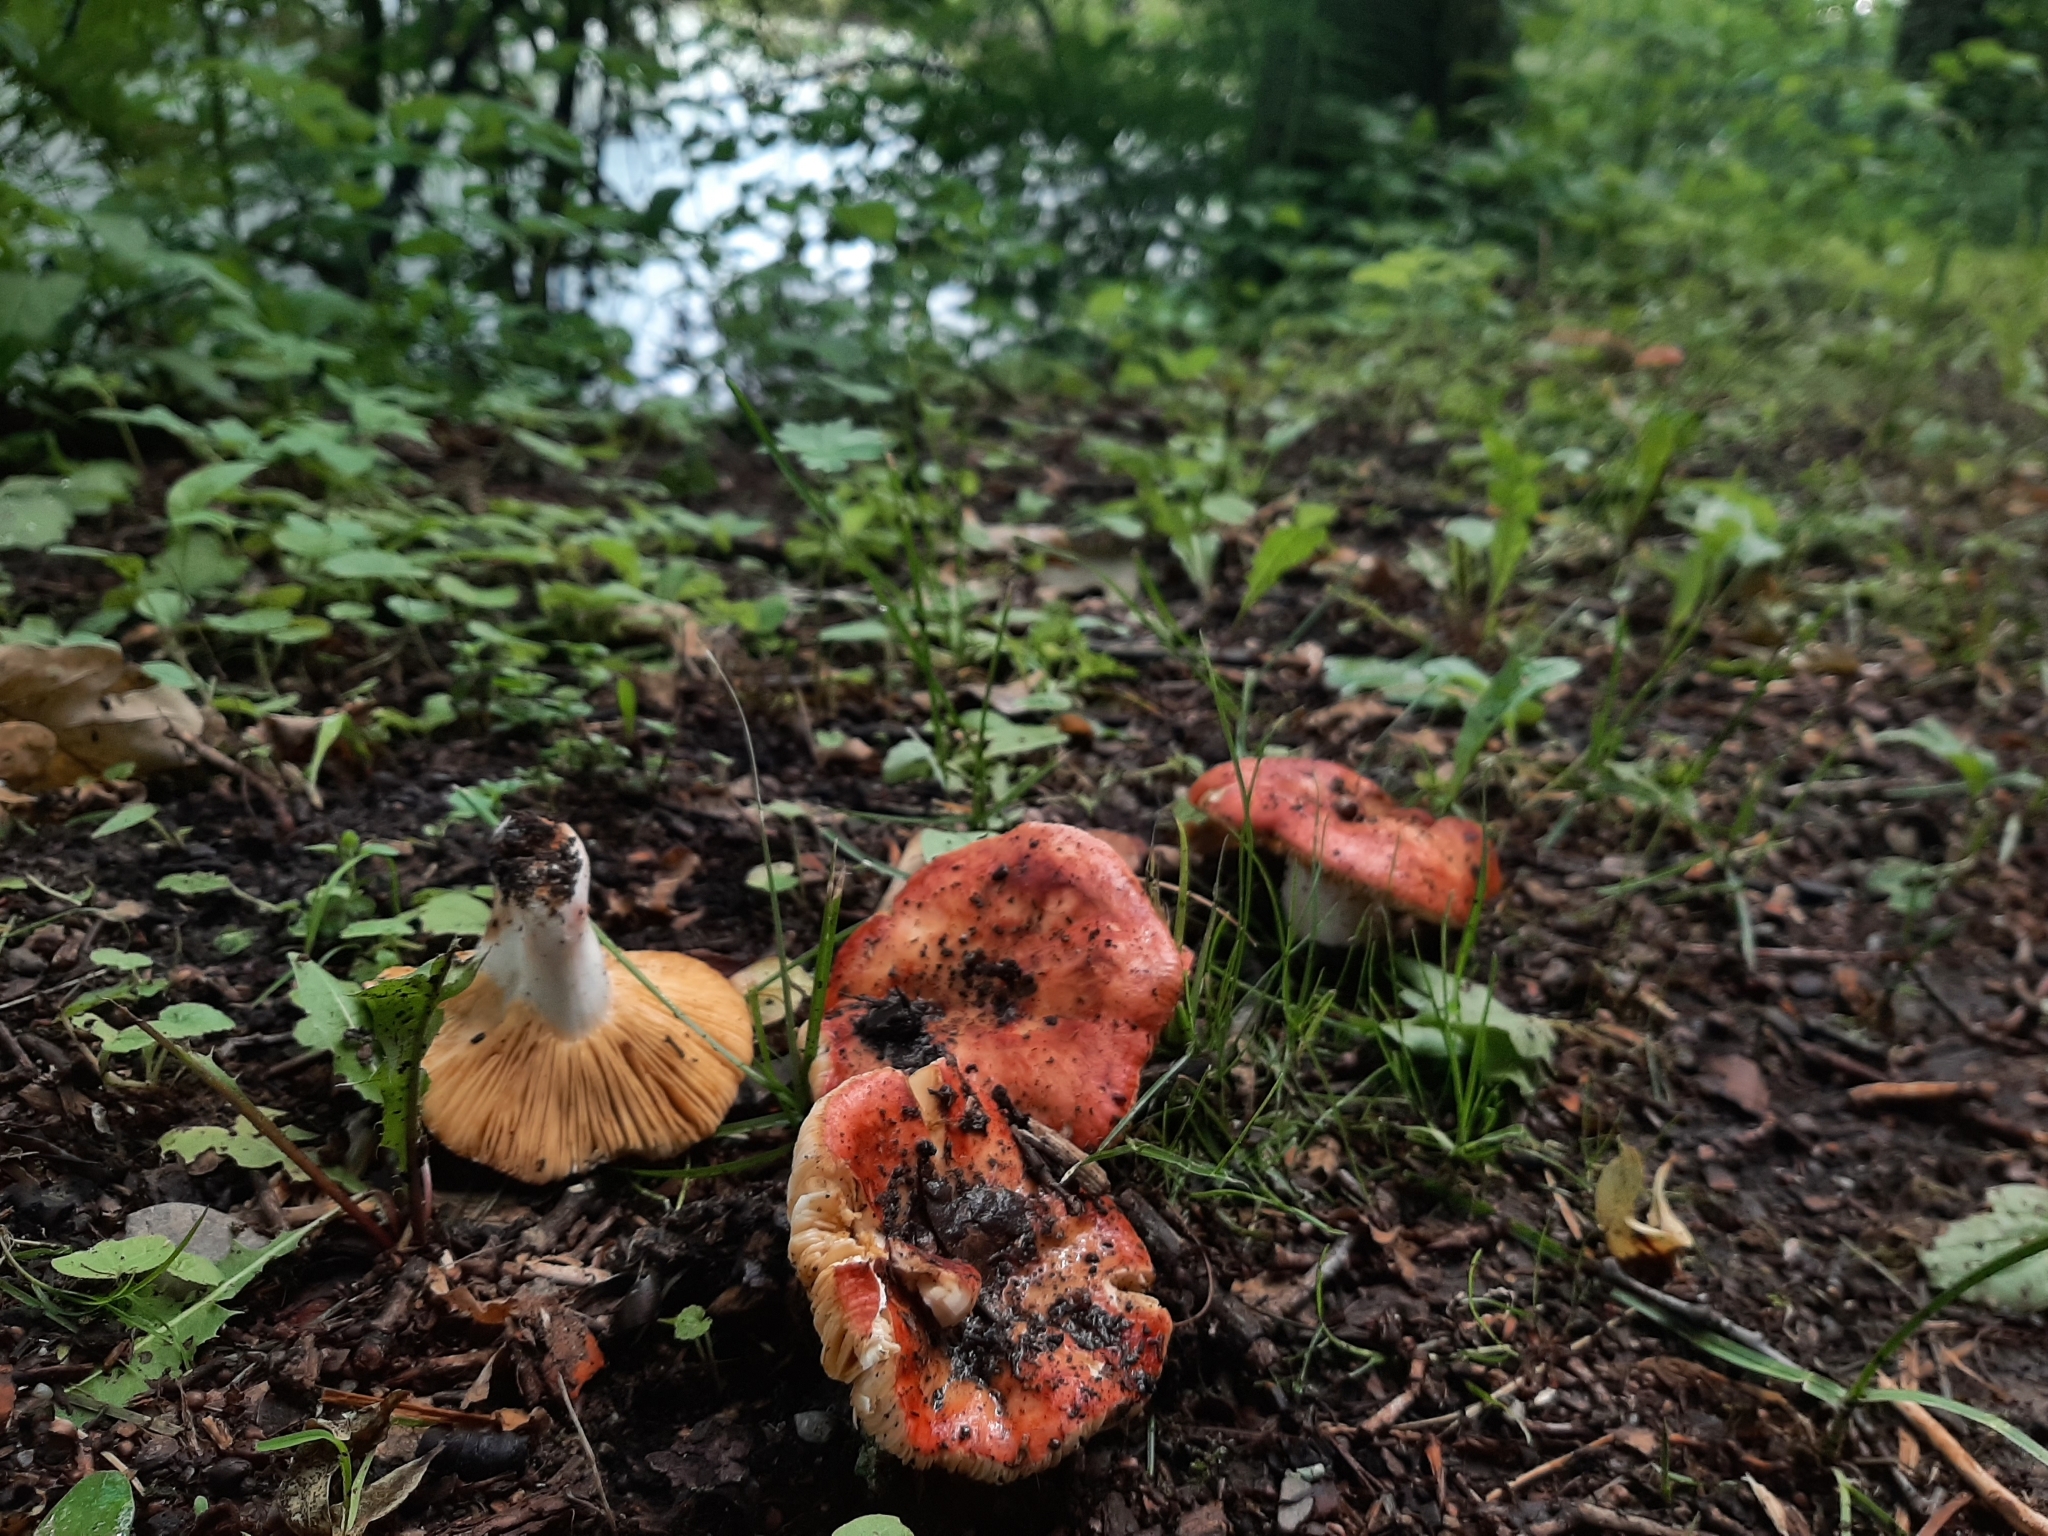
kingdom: Fungi
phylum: Basidiomycota
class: Agaricomycetes
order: Russulales
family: Russulaceae
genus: Russula
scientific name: Russula
